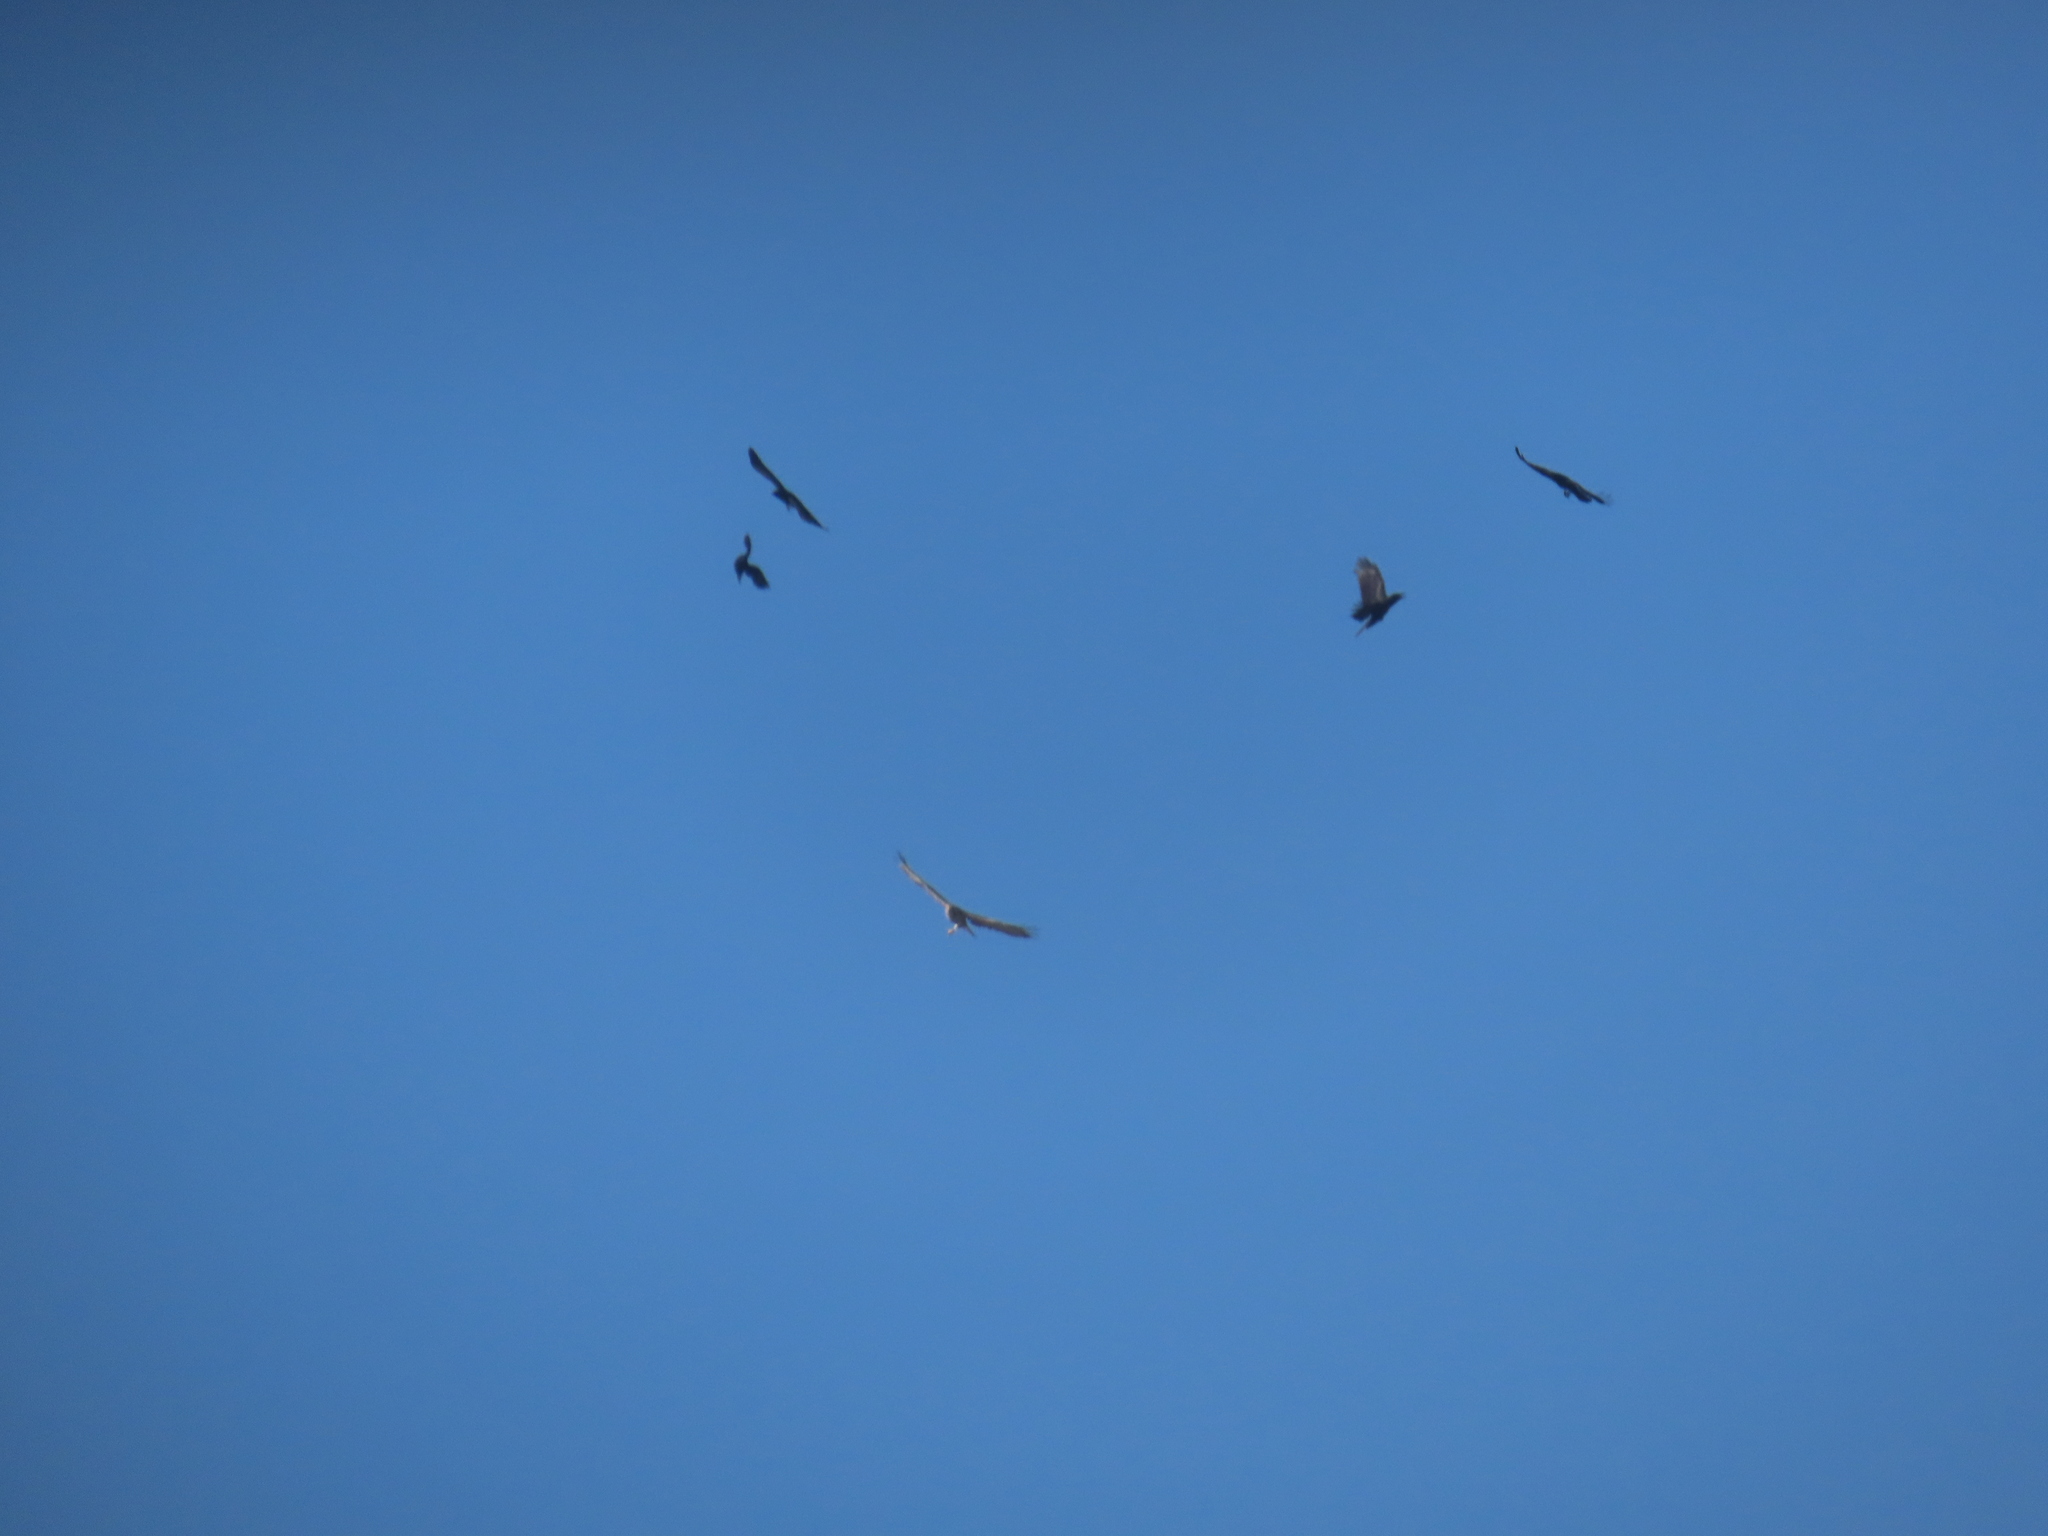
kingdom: Animalia
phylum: Chordata
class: Aves
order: Accipitriformes
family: Accipitridae
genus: Buteo
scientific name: Buteo jamaicensis
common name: Red-tailed hawk
